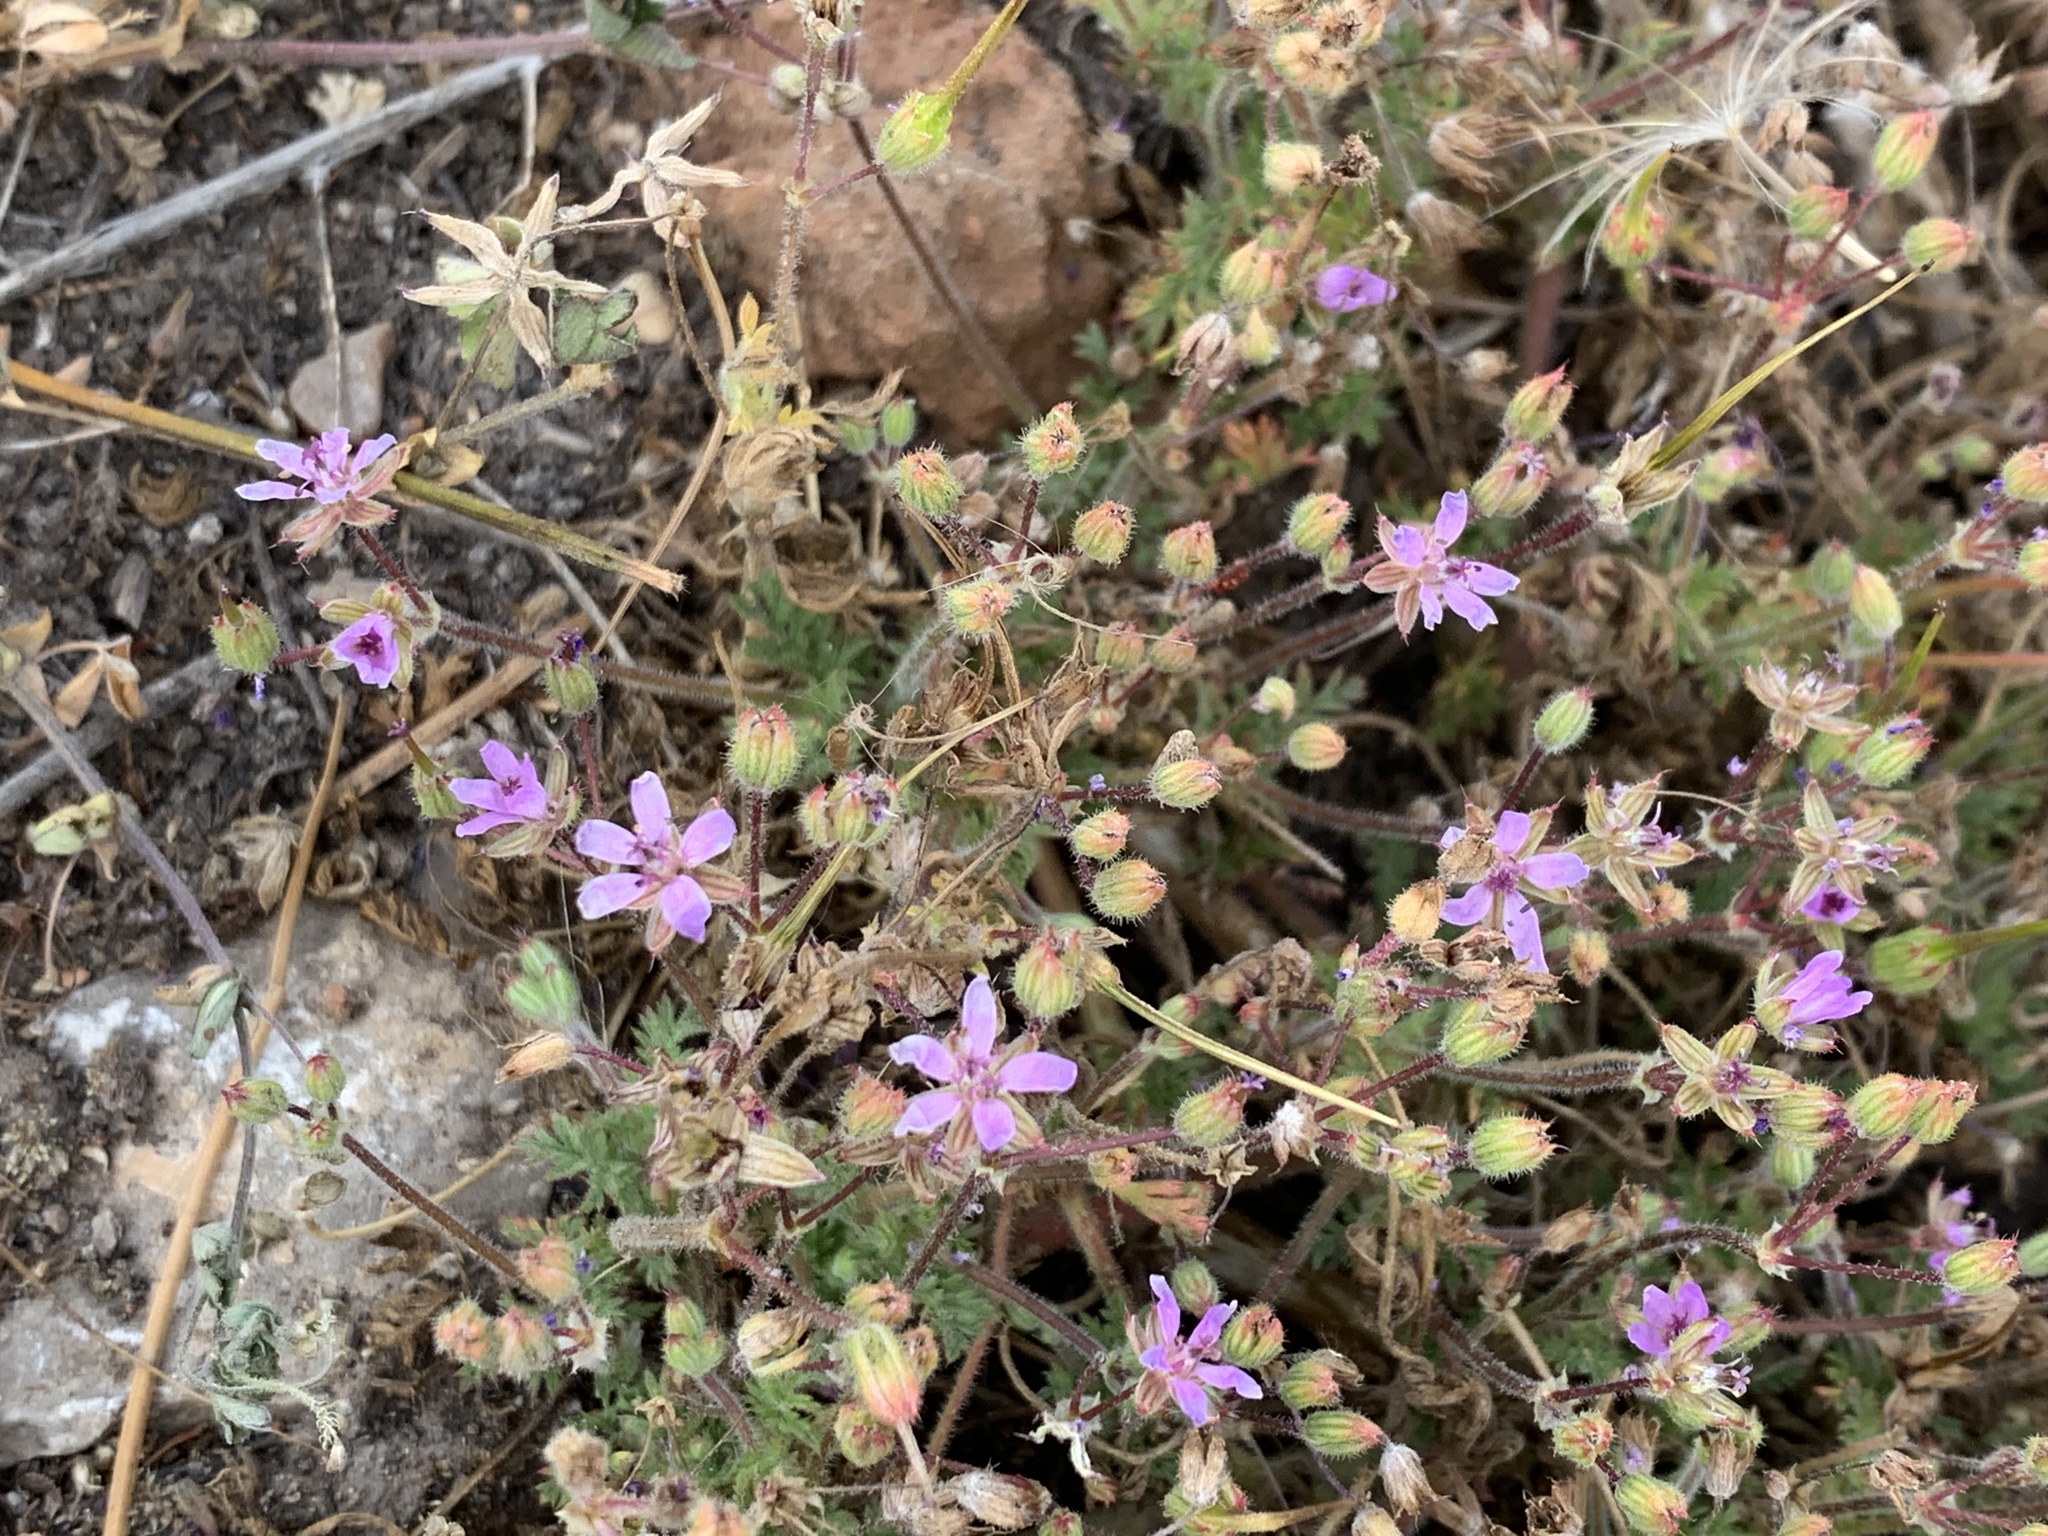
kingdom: Plantae
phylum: Tracheophyta
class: Magnoliopsida
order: Geraniales
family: Geraniaceae
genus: Erodium
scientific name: Erodium cicutarium
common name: Common stork's-bill
